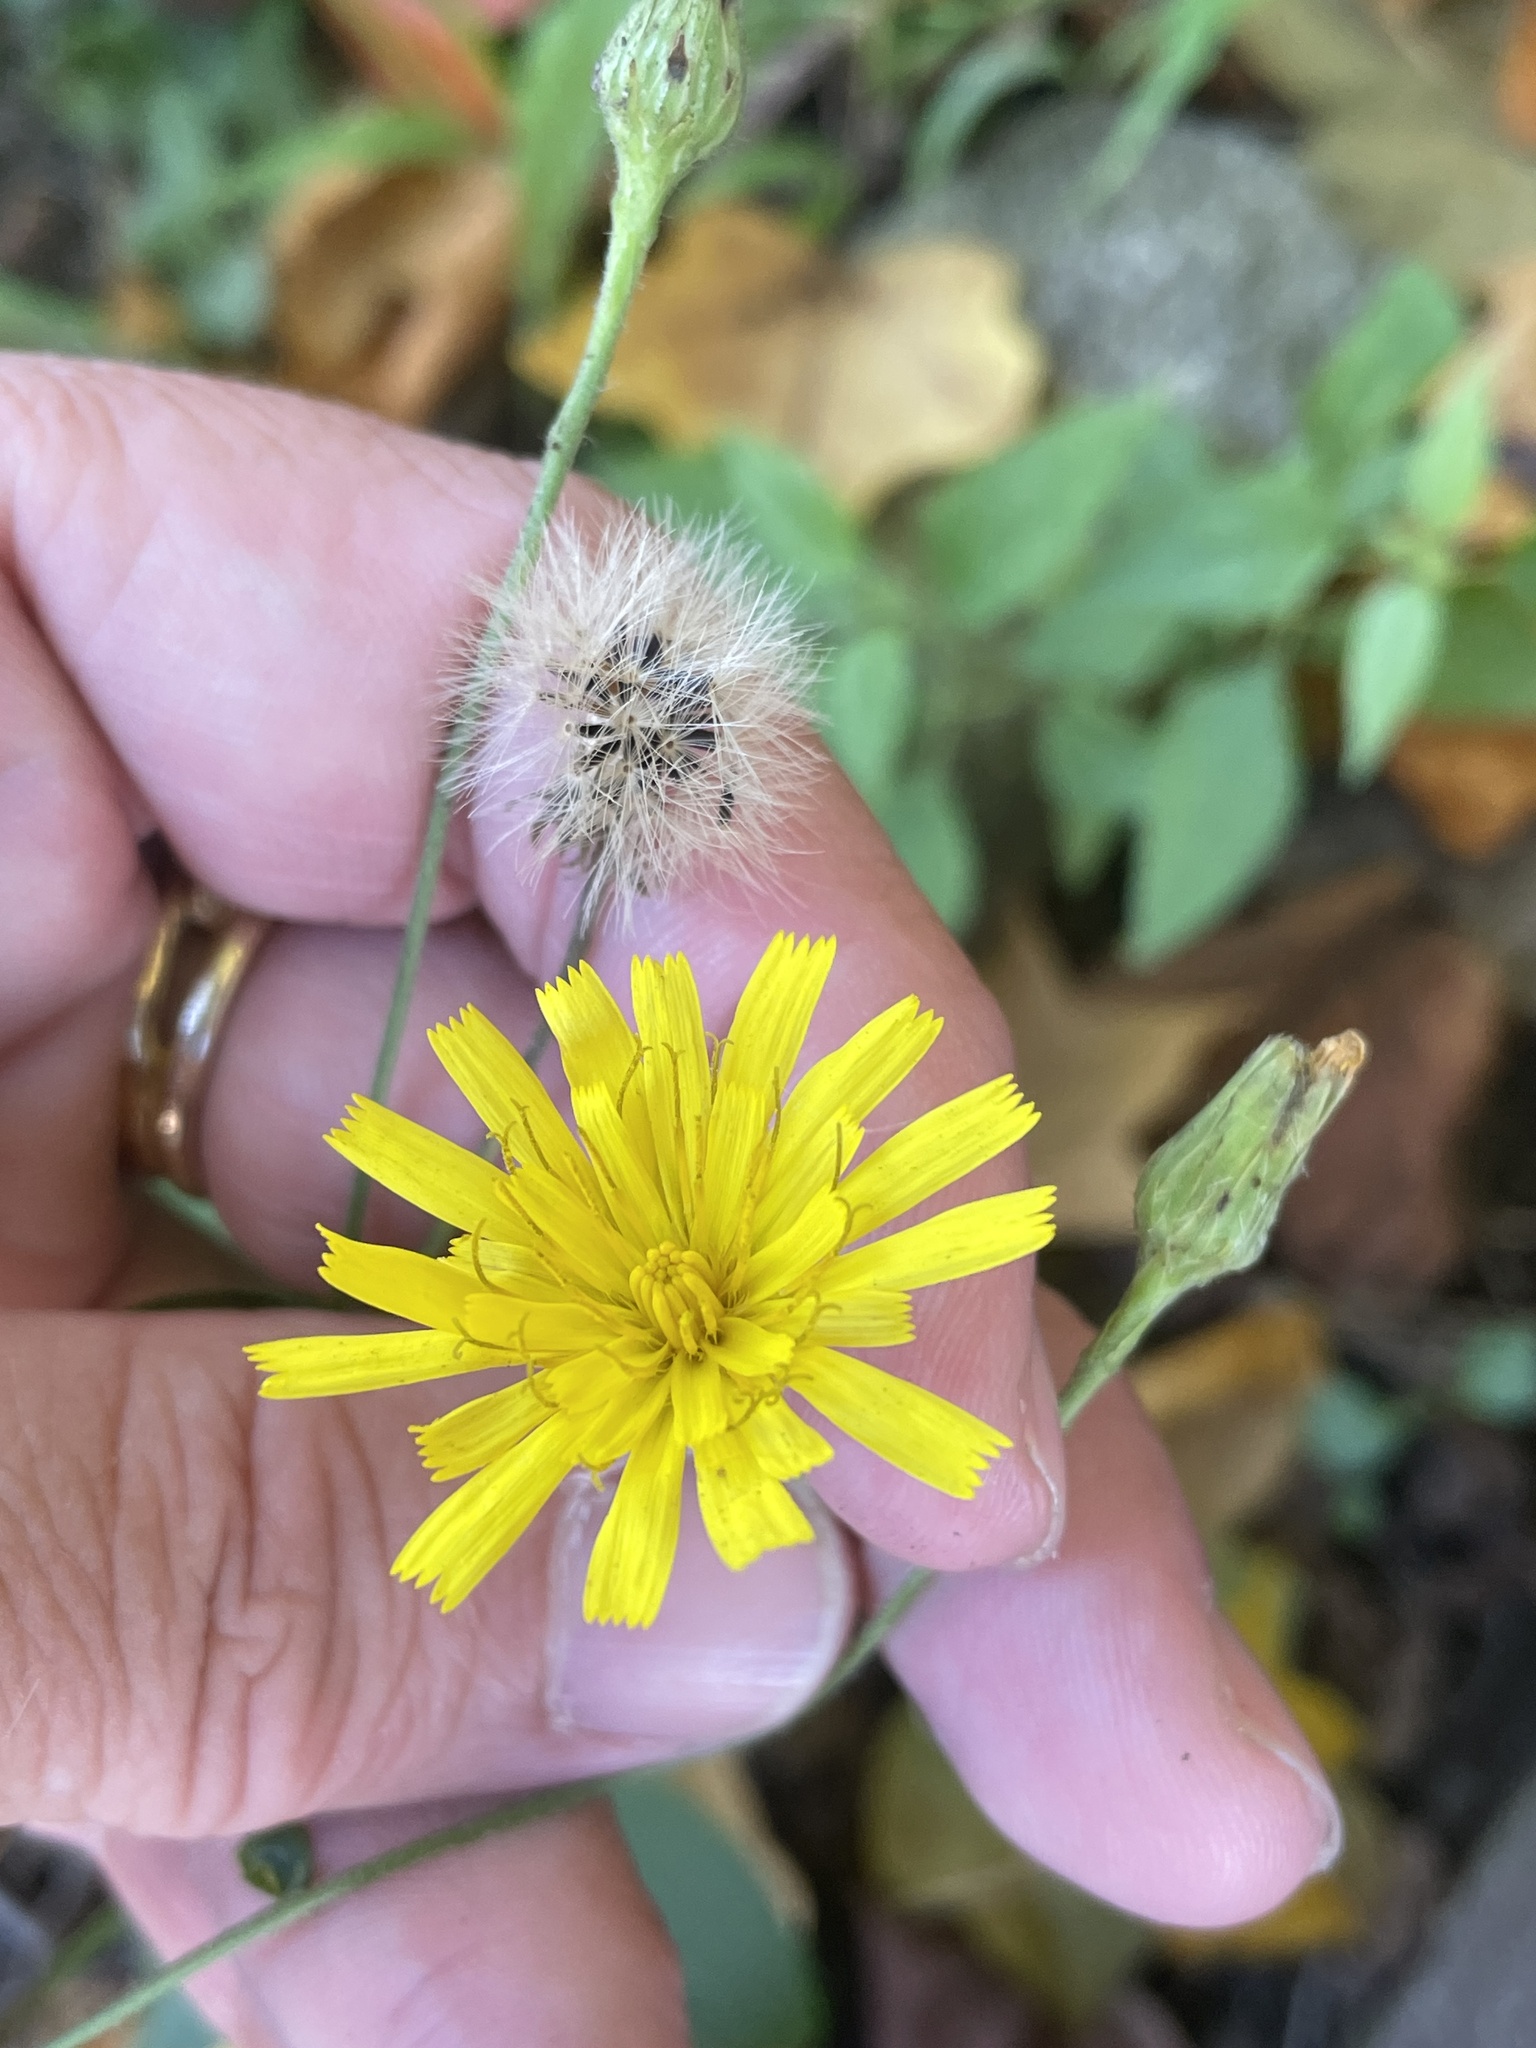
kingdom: Plantae
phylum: Tracheophyta
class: Magnoliopsida
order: Asterales
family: Asteraceae
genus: Hieracium
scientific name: Hieracium lachenalii
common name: Common hawkweed
